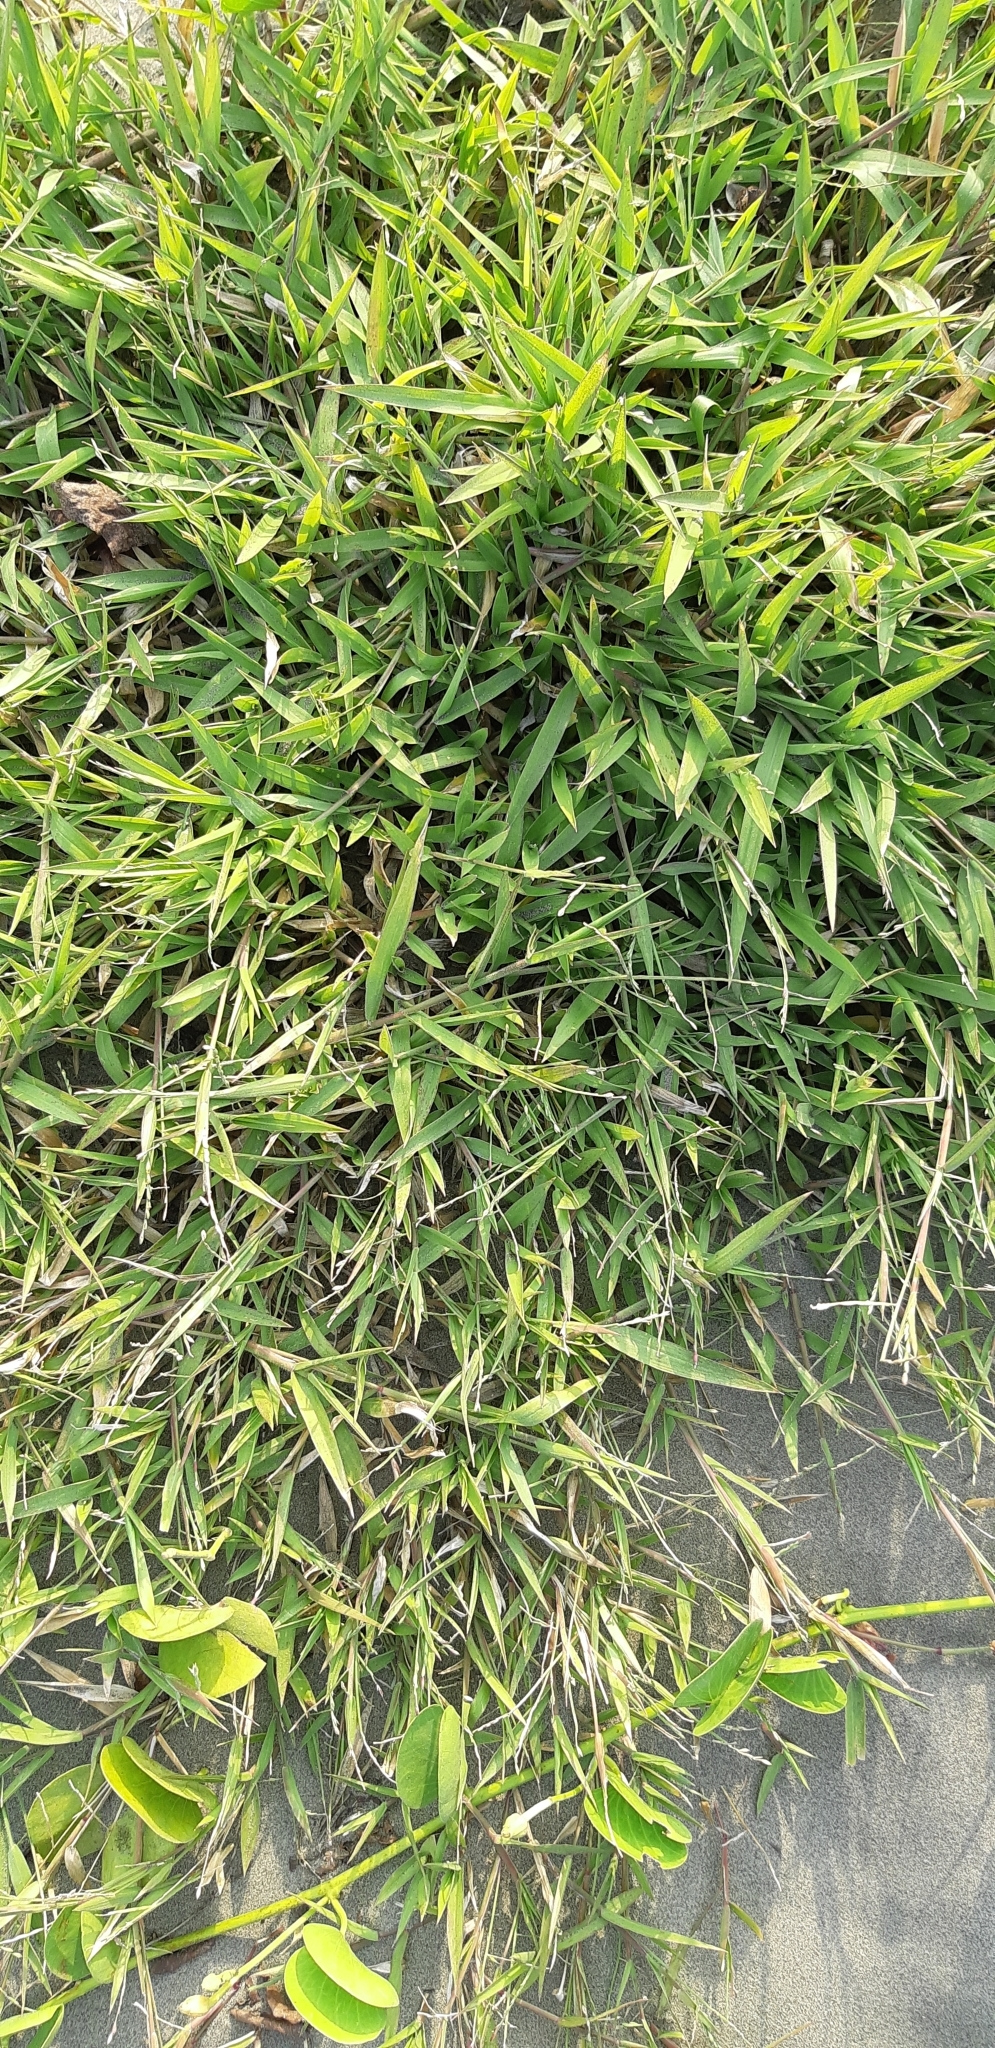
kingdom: Plantae
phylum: Tracheophyta
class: Liliopsida
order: Poales
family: Poaceae
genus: Urochloa
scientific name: Urochloa distachyos
